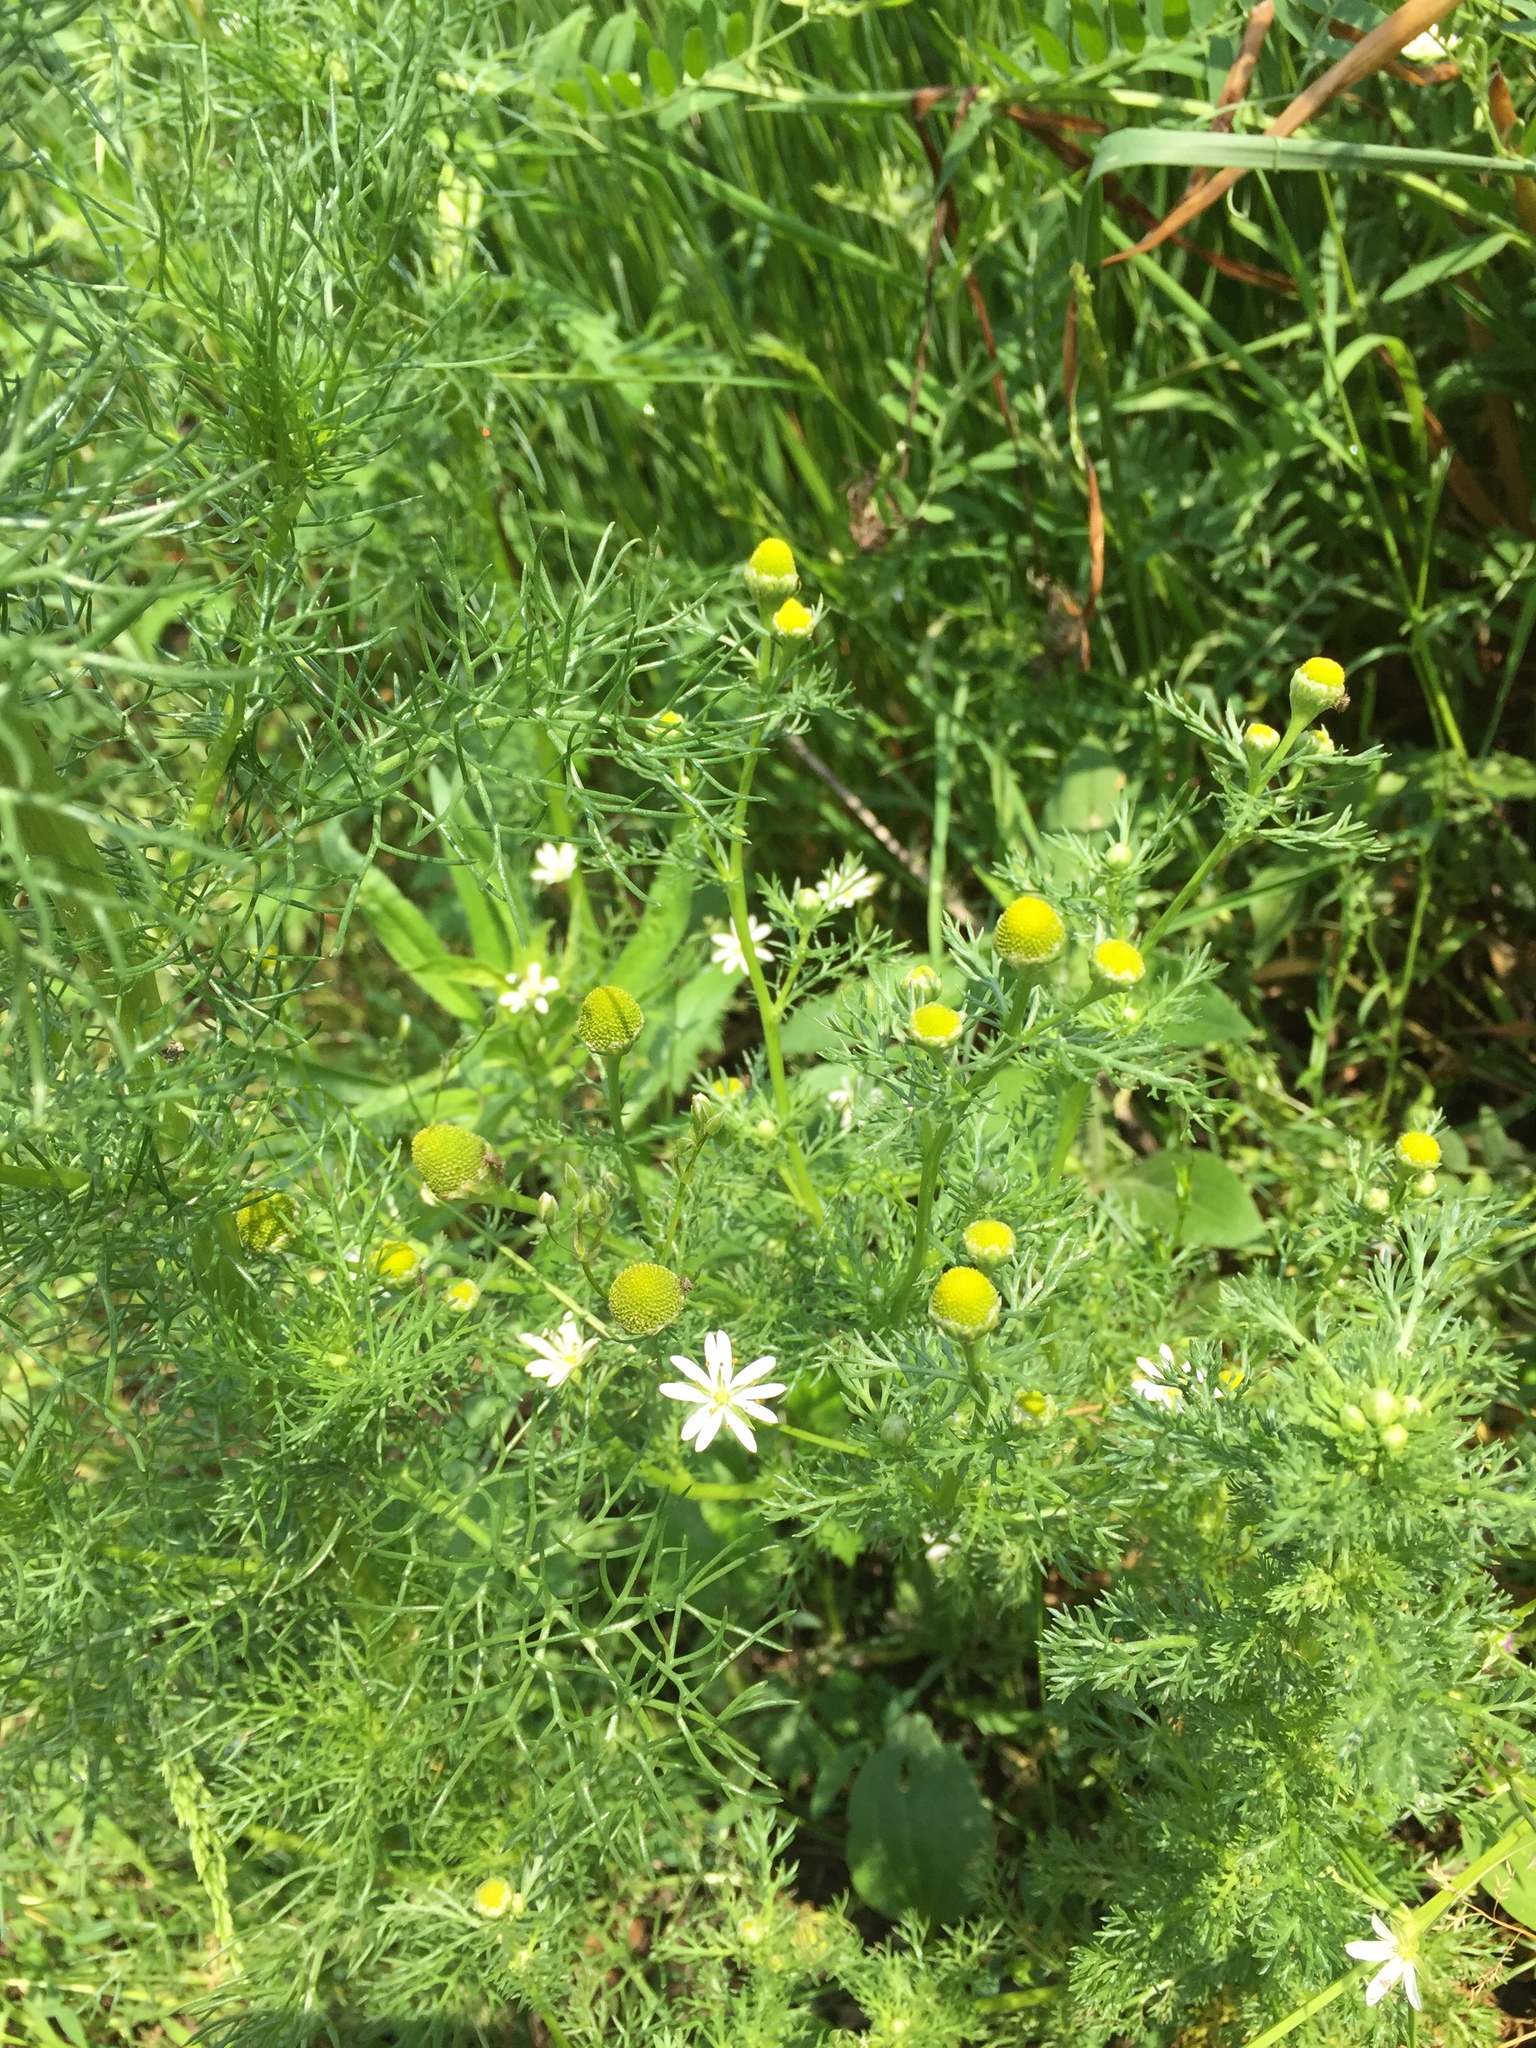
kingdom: Plantae
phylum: Tracheophyta
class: Magnoliopsida
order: Asterales
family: Asteraceae
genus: Matricaria
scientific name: Matricaria discoidea
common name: Disc mayweed
